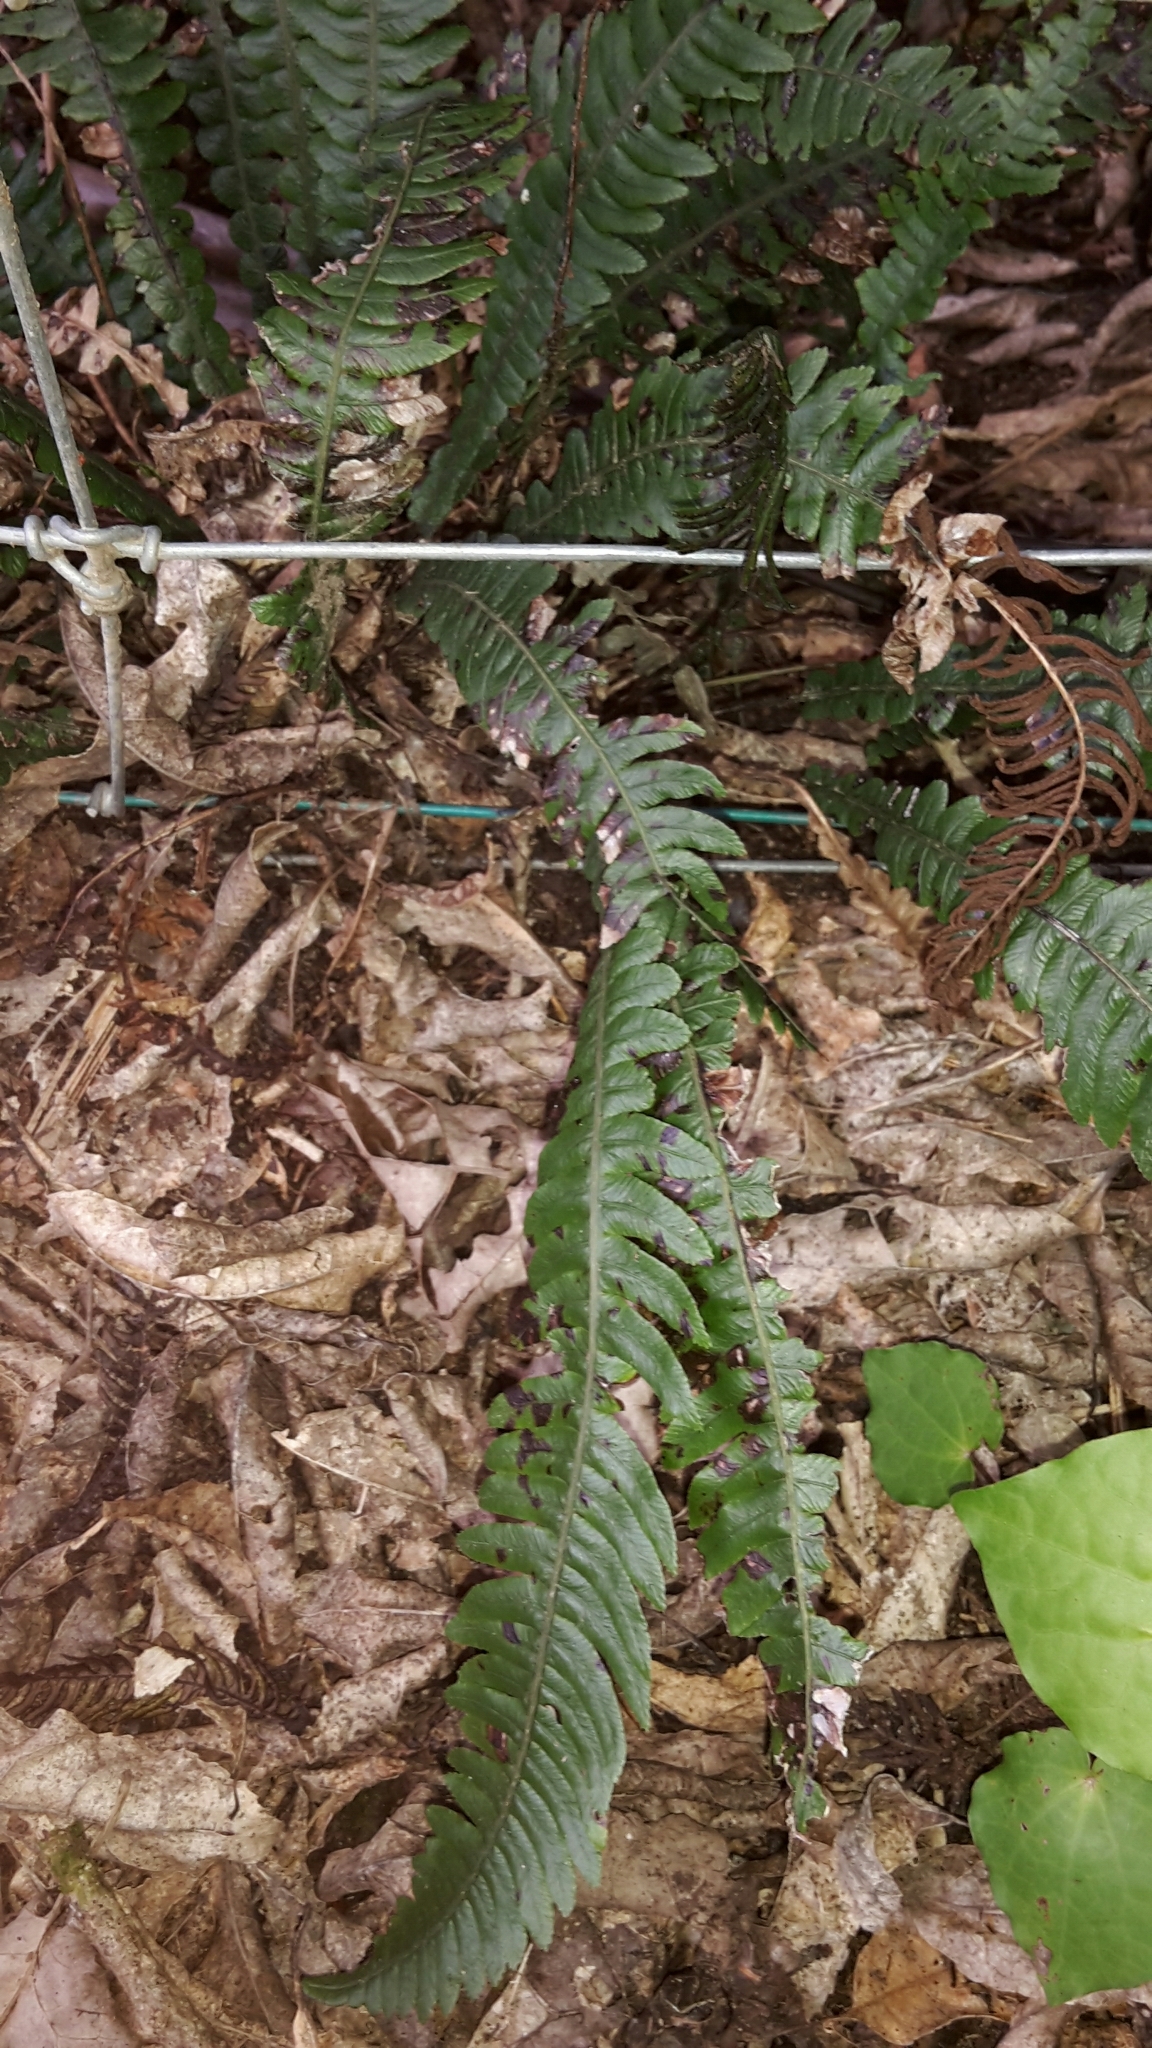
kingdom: Plantae
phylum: Tracheophyta
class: Polypodiopsida
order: Polypodiales
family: Blechnaceae
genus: Austroblechnum
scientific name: Austroblechnum lanceolatum
